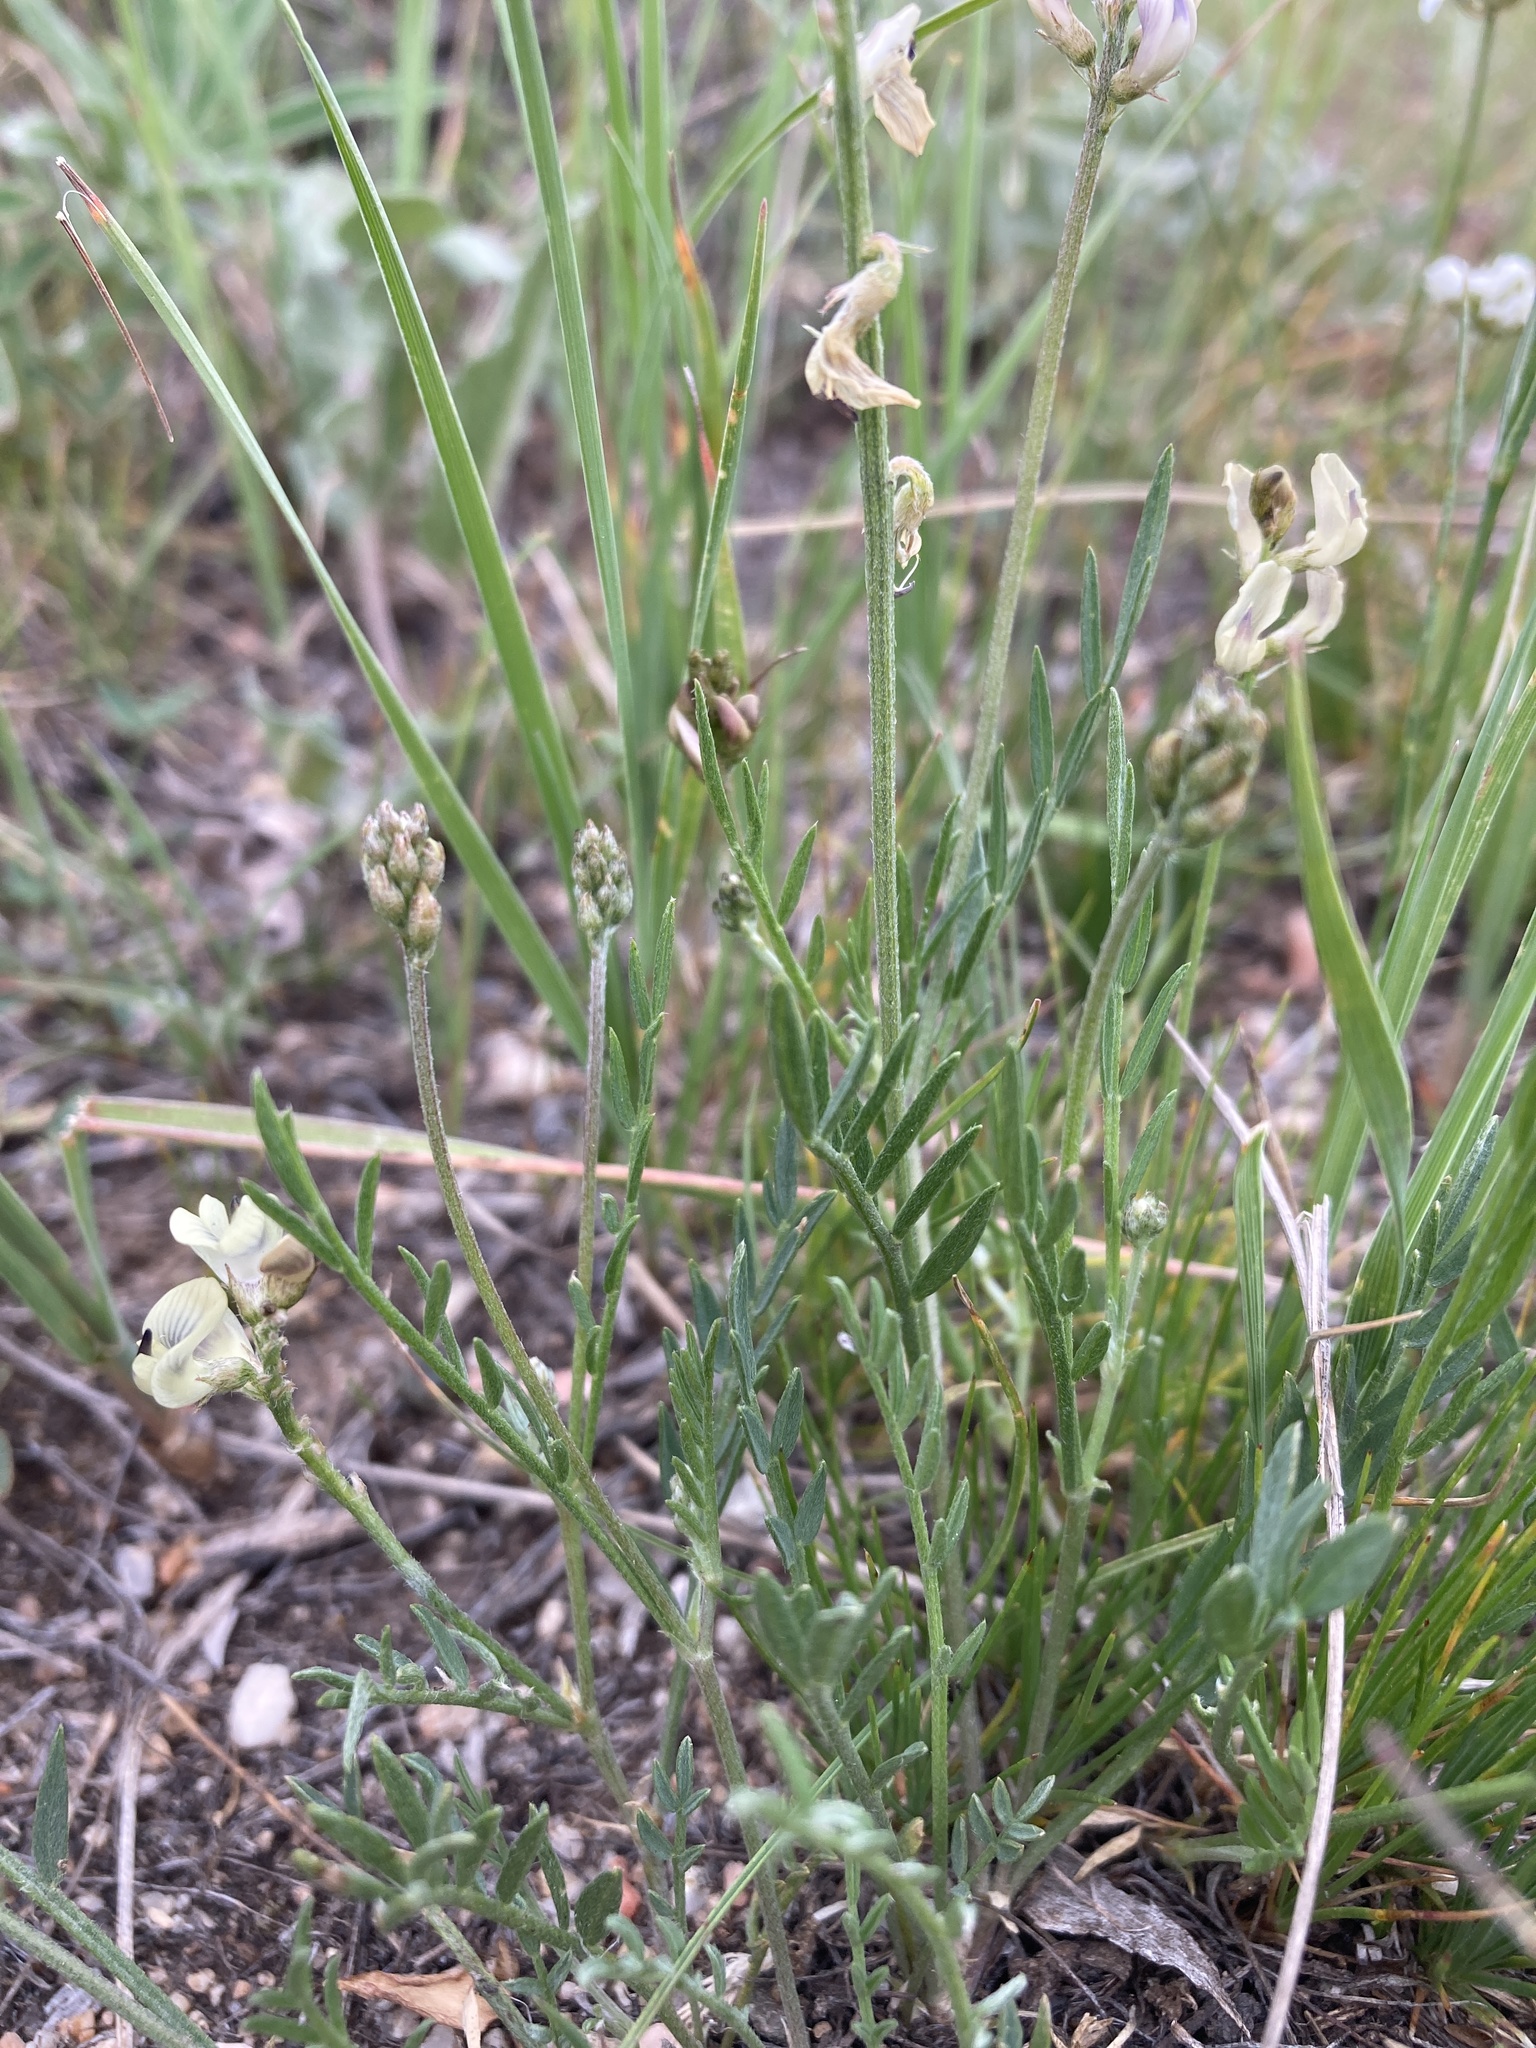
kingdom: Plantae
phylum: Tracheophyta
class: Magnoliopsida
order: Fabales
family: Fabaceae
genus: Astragalus
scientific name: Astragalus miser
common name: Timber milkvetch
